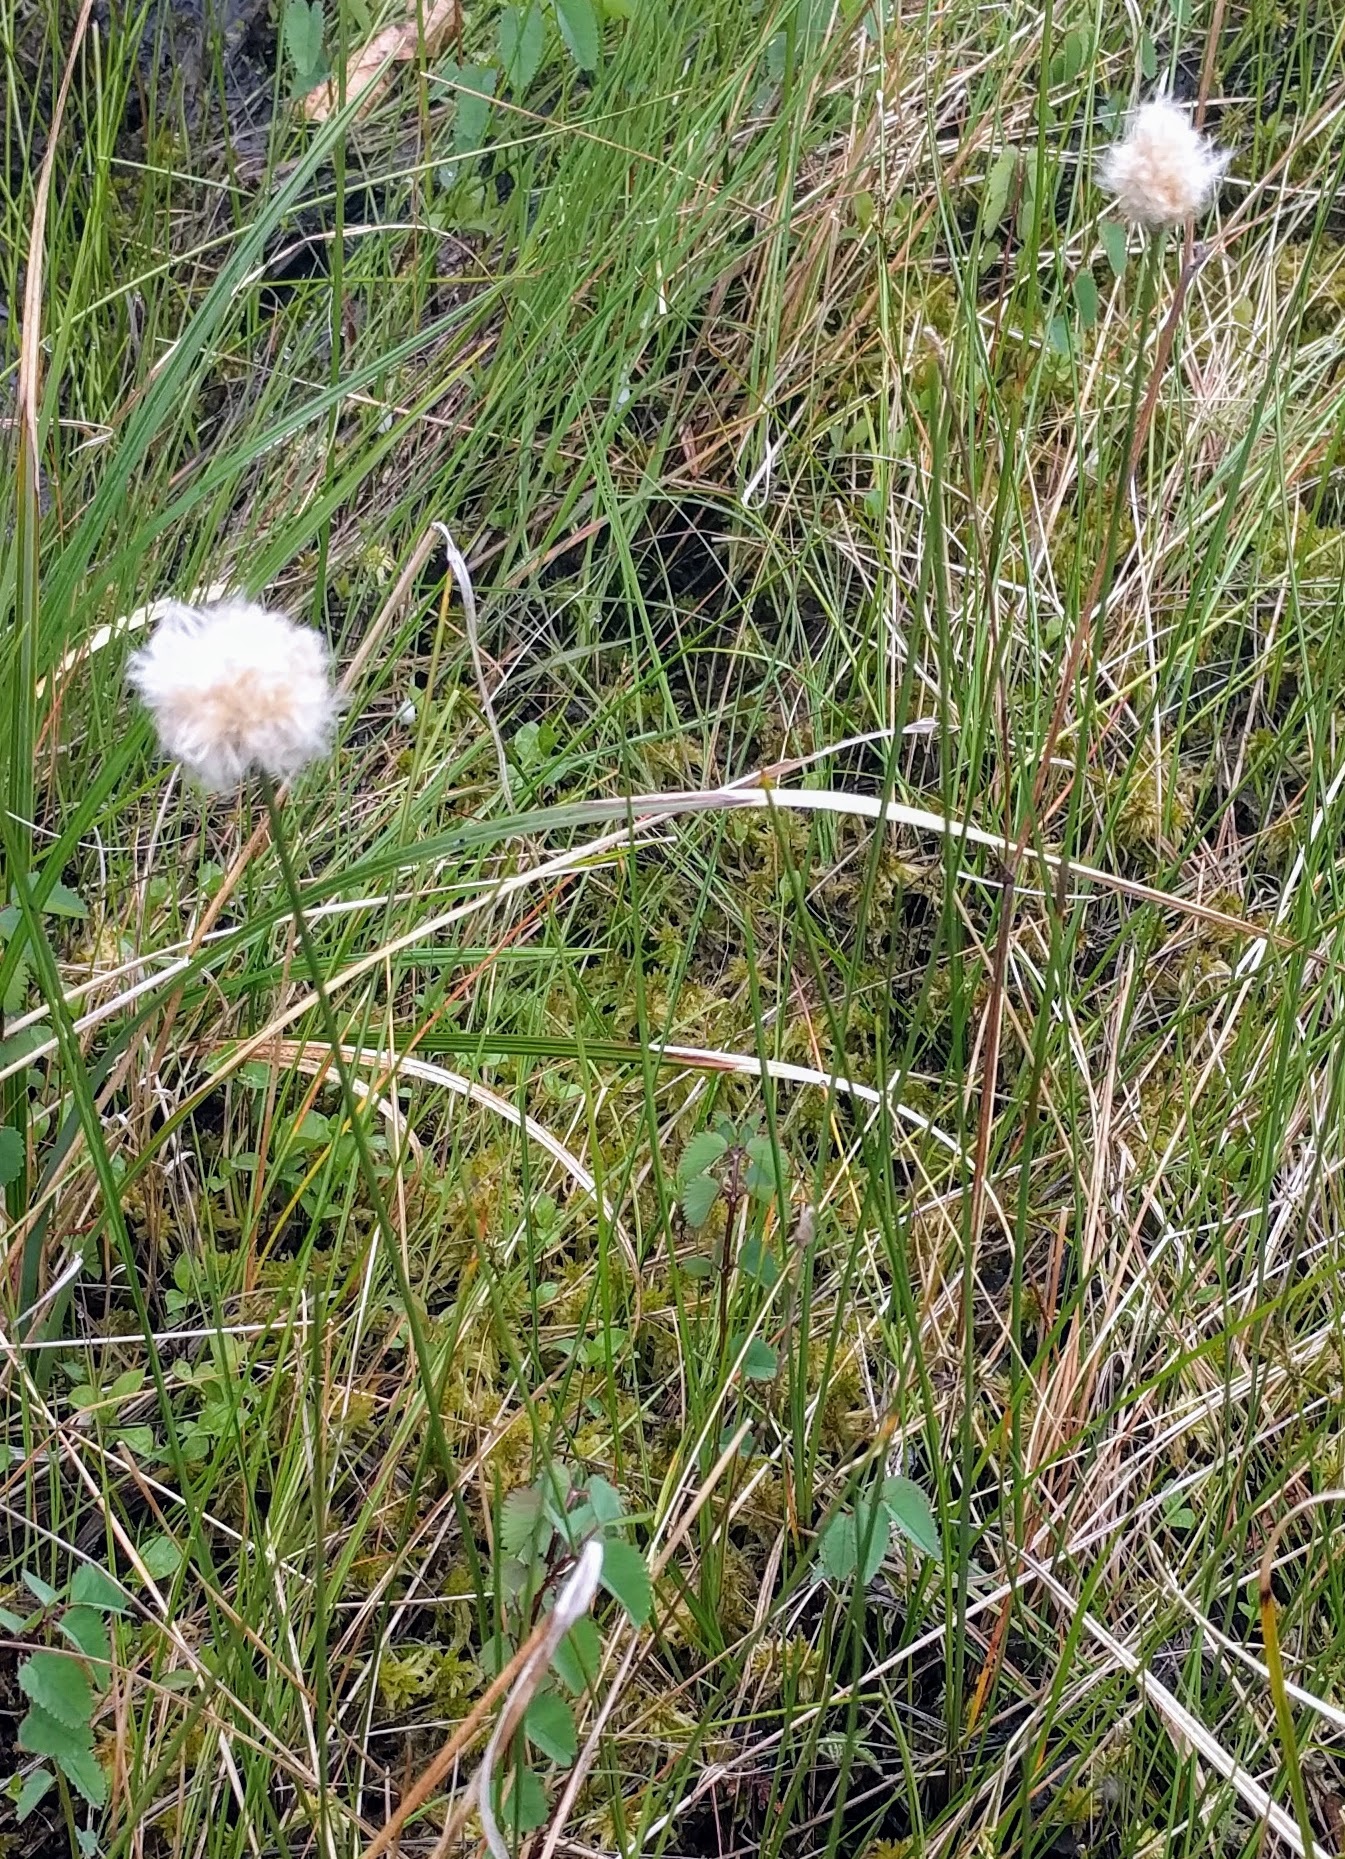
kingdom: Plantae
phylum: Tracheophyta
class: Liliopsida
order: Poales
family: Cyperaceae
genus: Eriophorum
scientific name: Eriophorum chamissonis
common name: Chamisso's cottongrass
